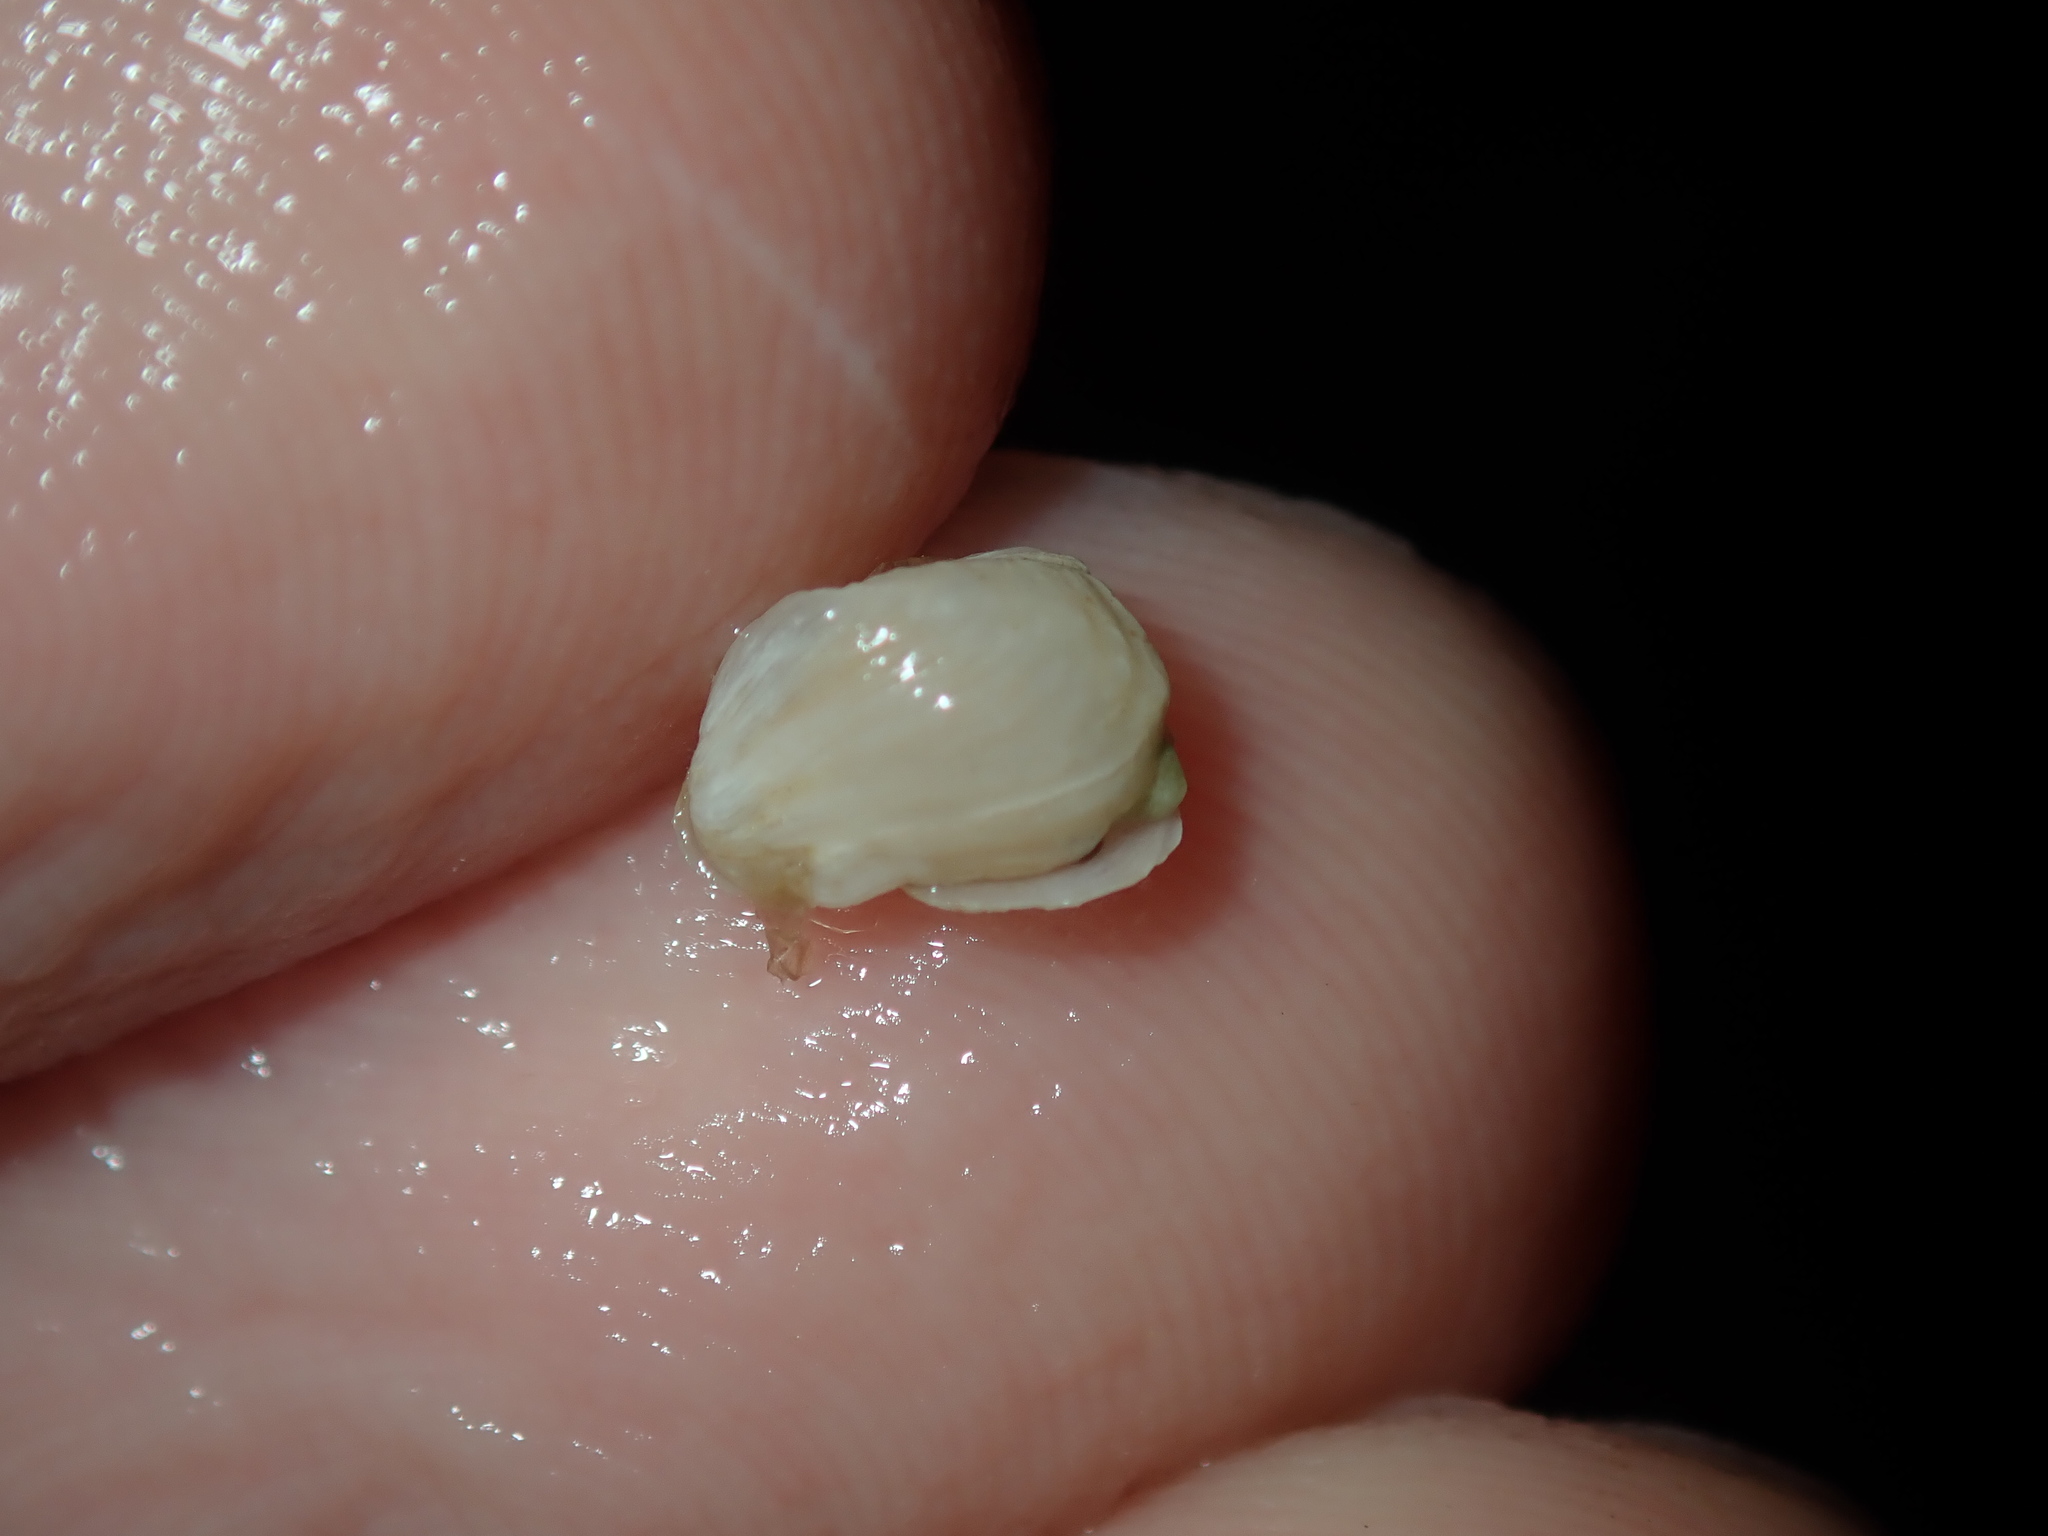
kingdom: Animalia
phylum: Mollusca
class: Bivalvia
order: Adapedonta
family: Hiatellidae
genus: Hiatella
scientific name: Hiatella australis
